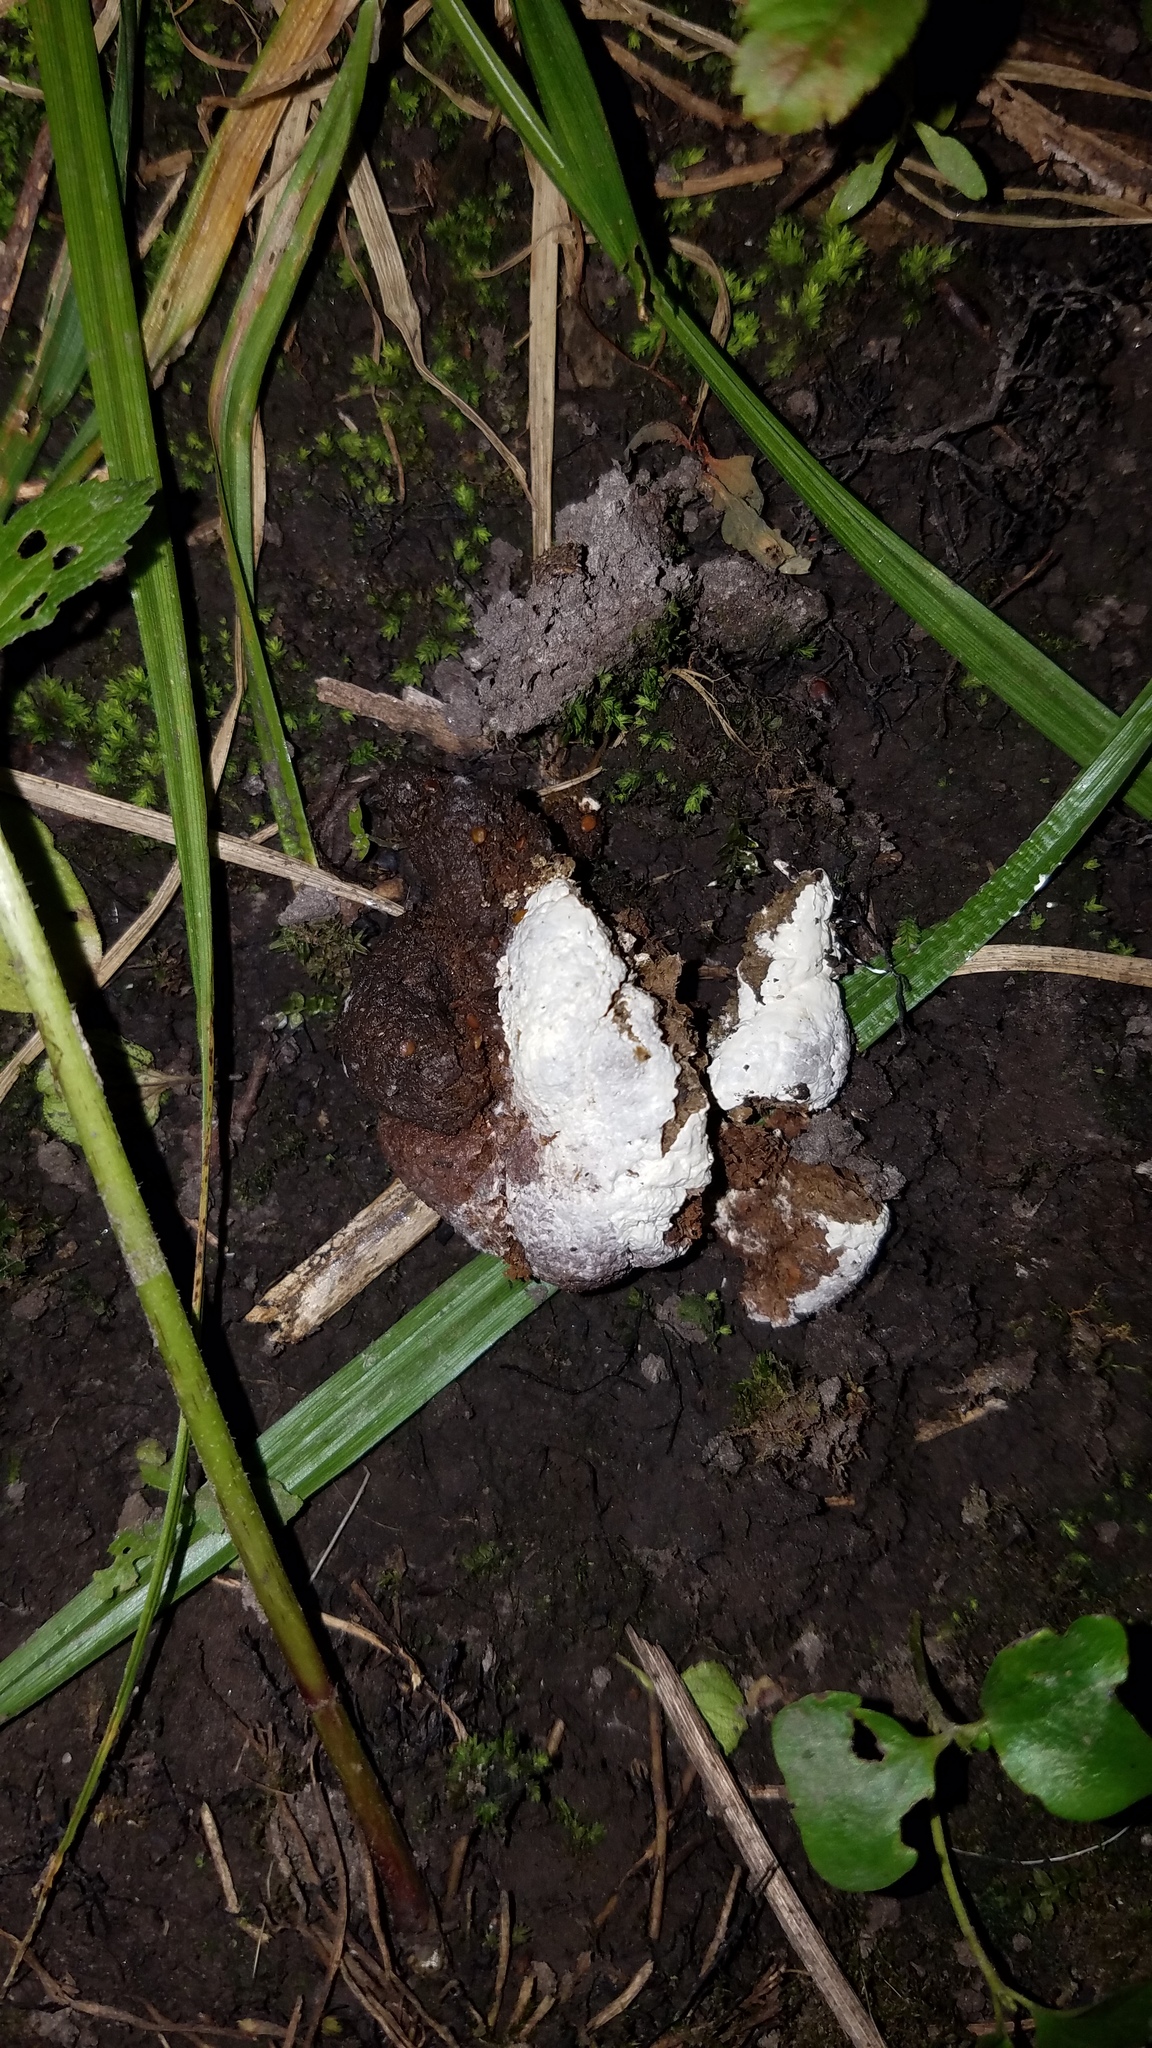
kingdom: Animalia
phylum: Chordata
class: Aves
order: Galliformes
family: Phasianidae
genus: Meleagris
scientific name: Meleagris gallopavo
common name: Wild turkey
